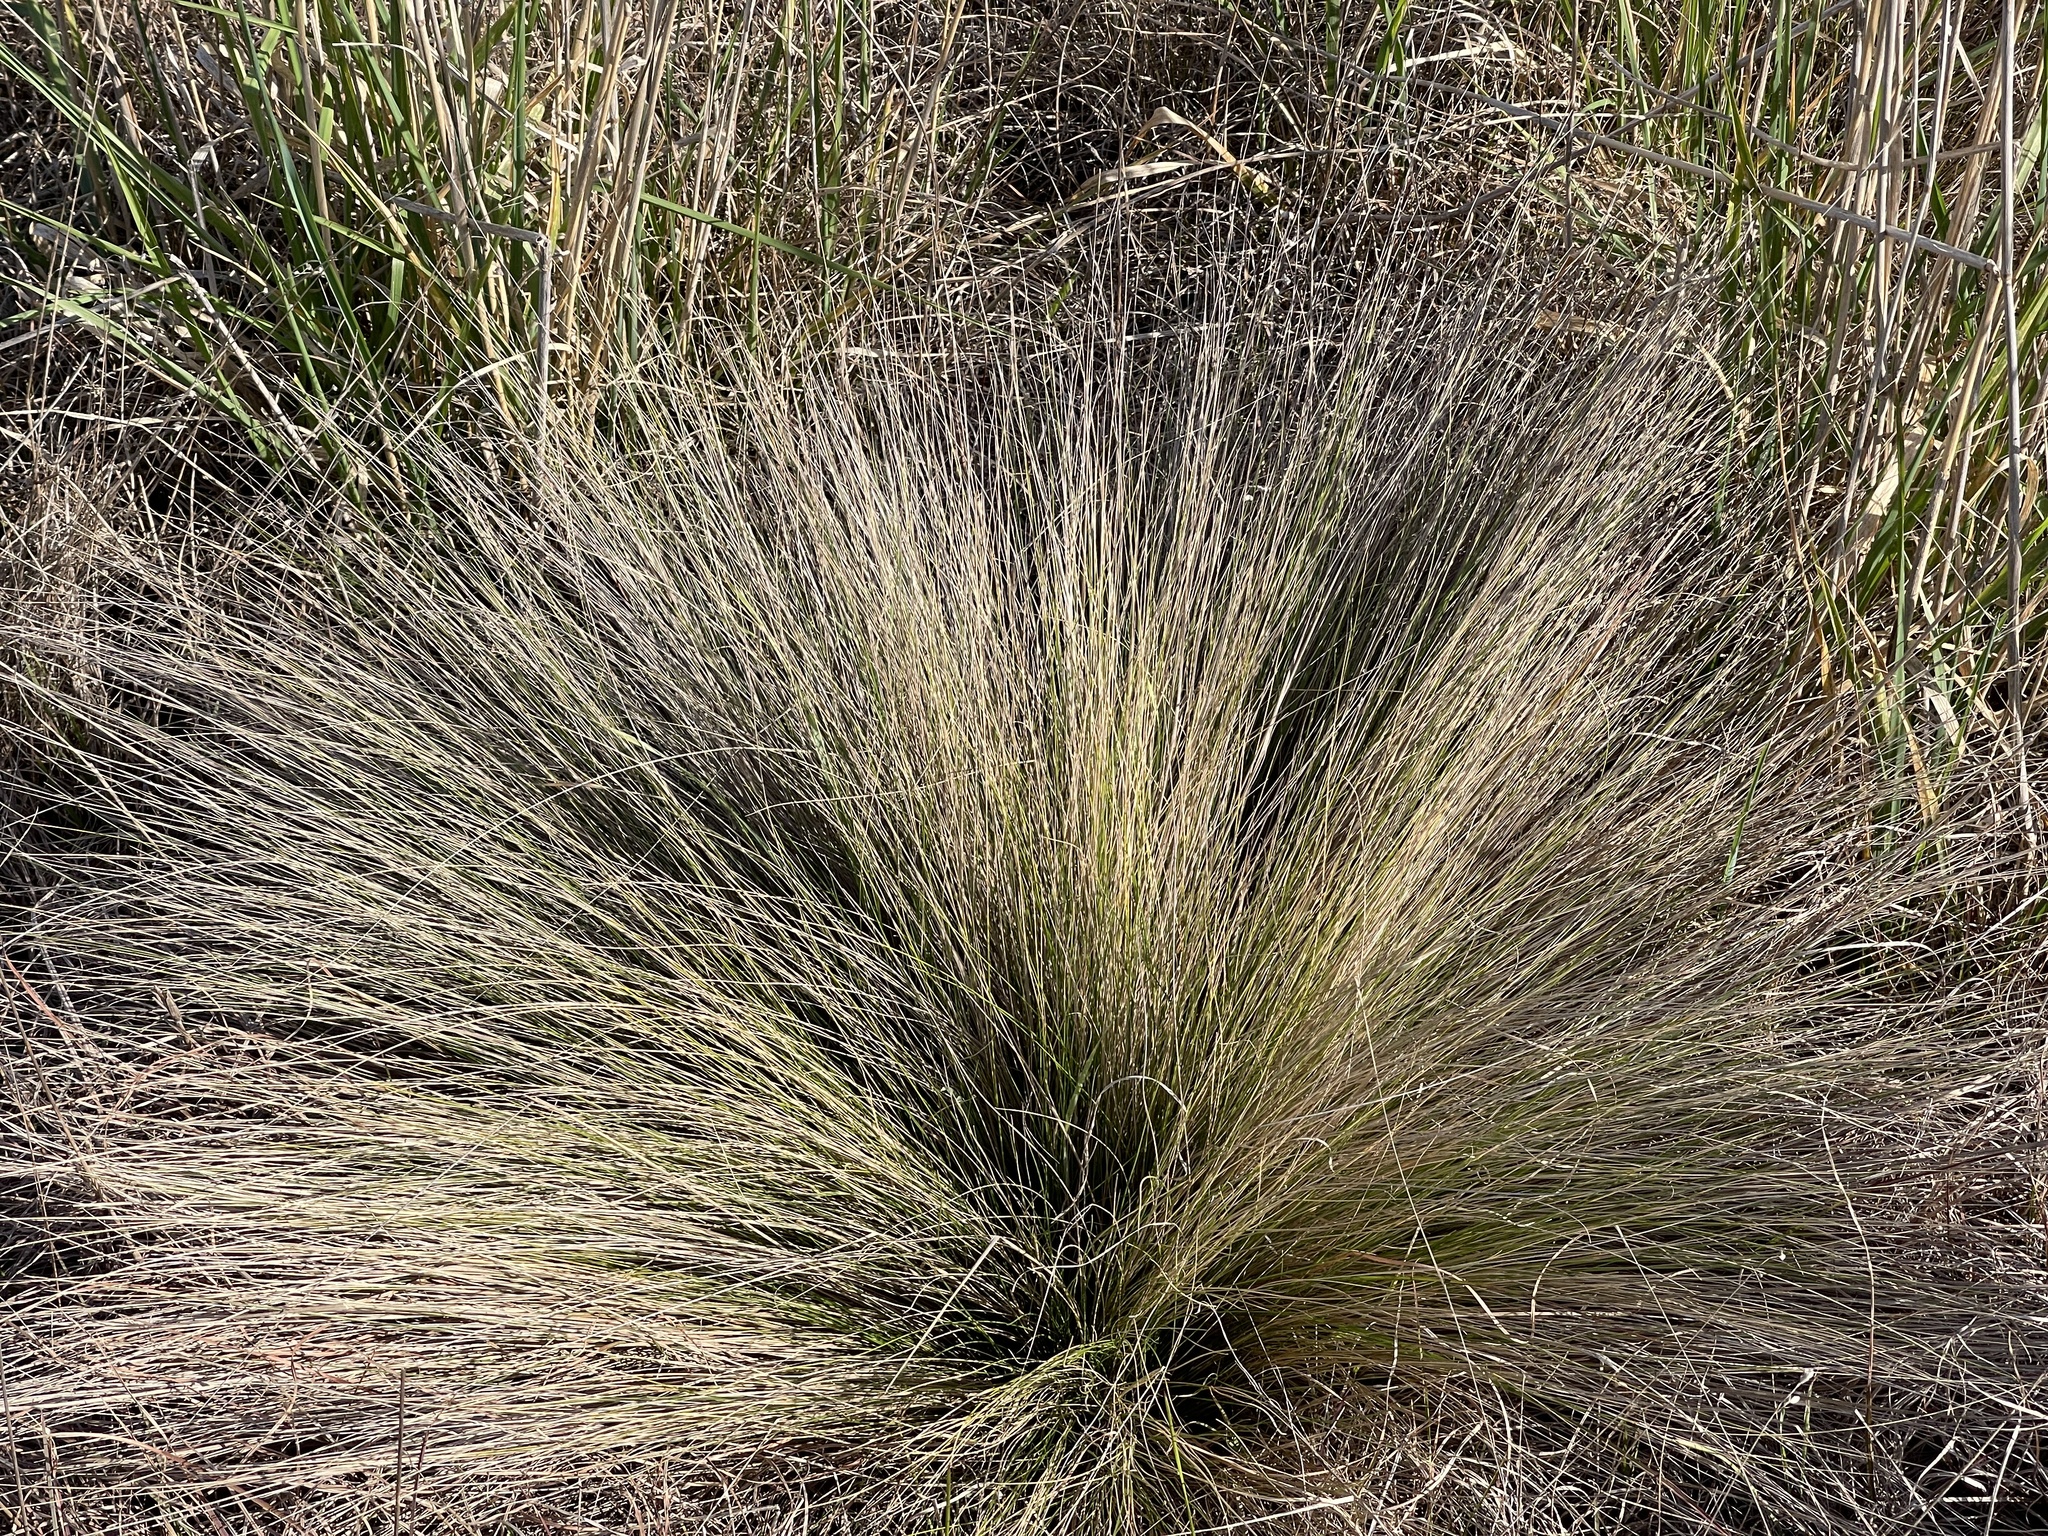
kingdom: Plantae
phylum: Tracheophyta
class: Liliopsida
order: Poales
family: Poaceae
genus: Nassella
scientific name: Nassella trichotoma
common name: Serrated tussock grass
